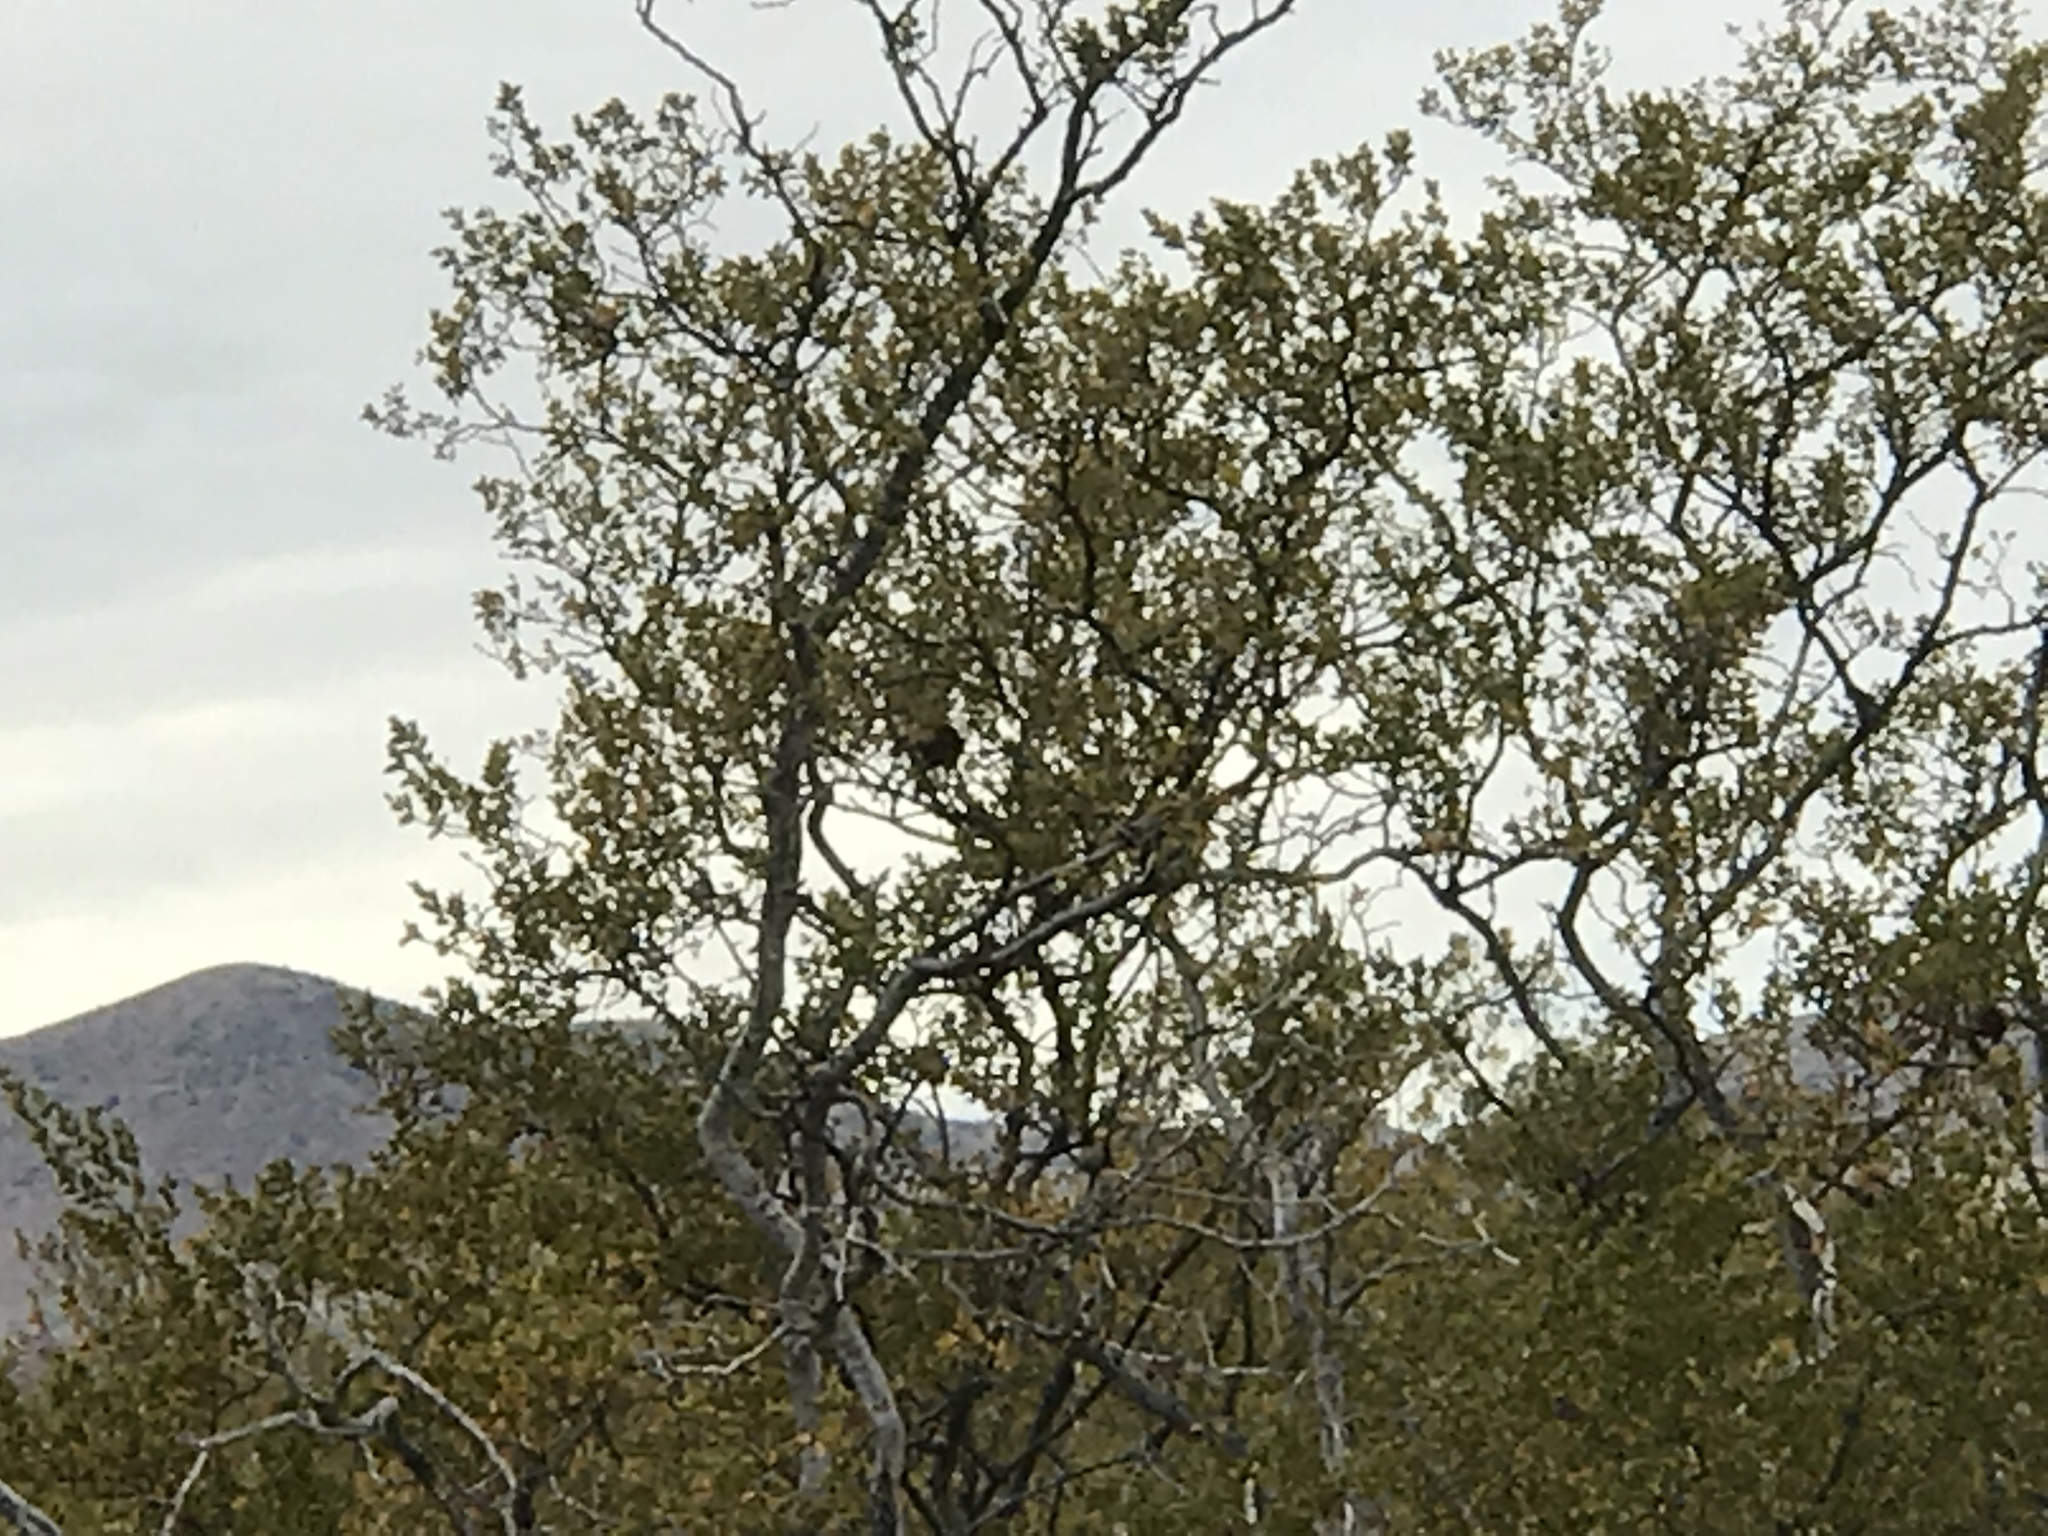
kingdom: Plantae
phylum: Tracheophyta
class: Magnoliopsida
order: Zygophyllales
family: Zygophyllaceae
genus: Larrea
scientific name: Larrea tridentata
